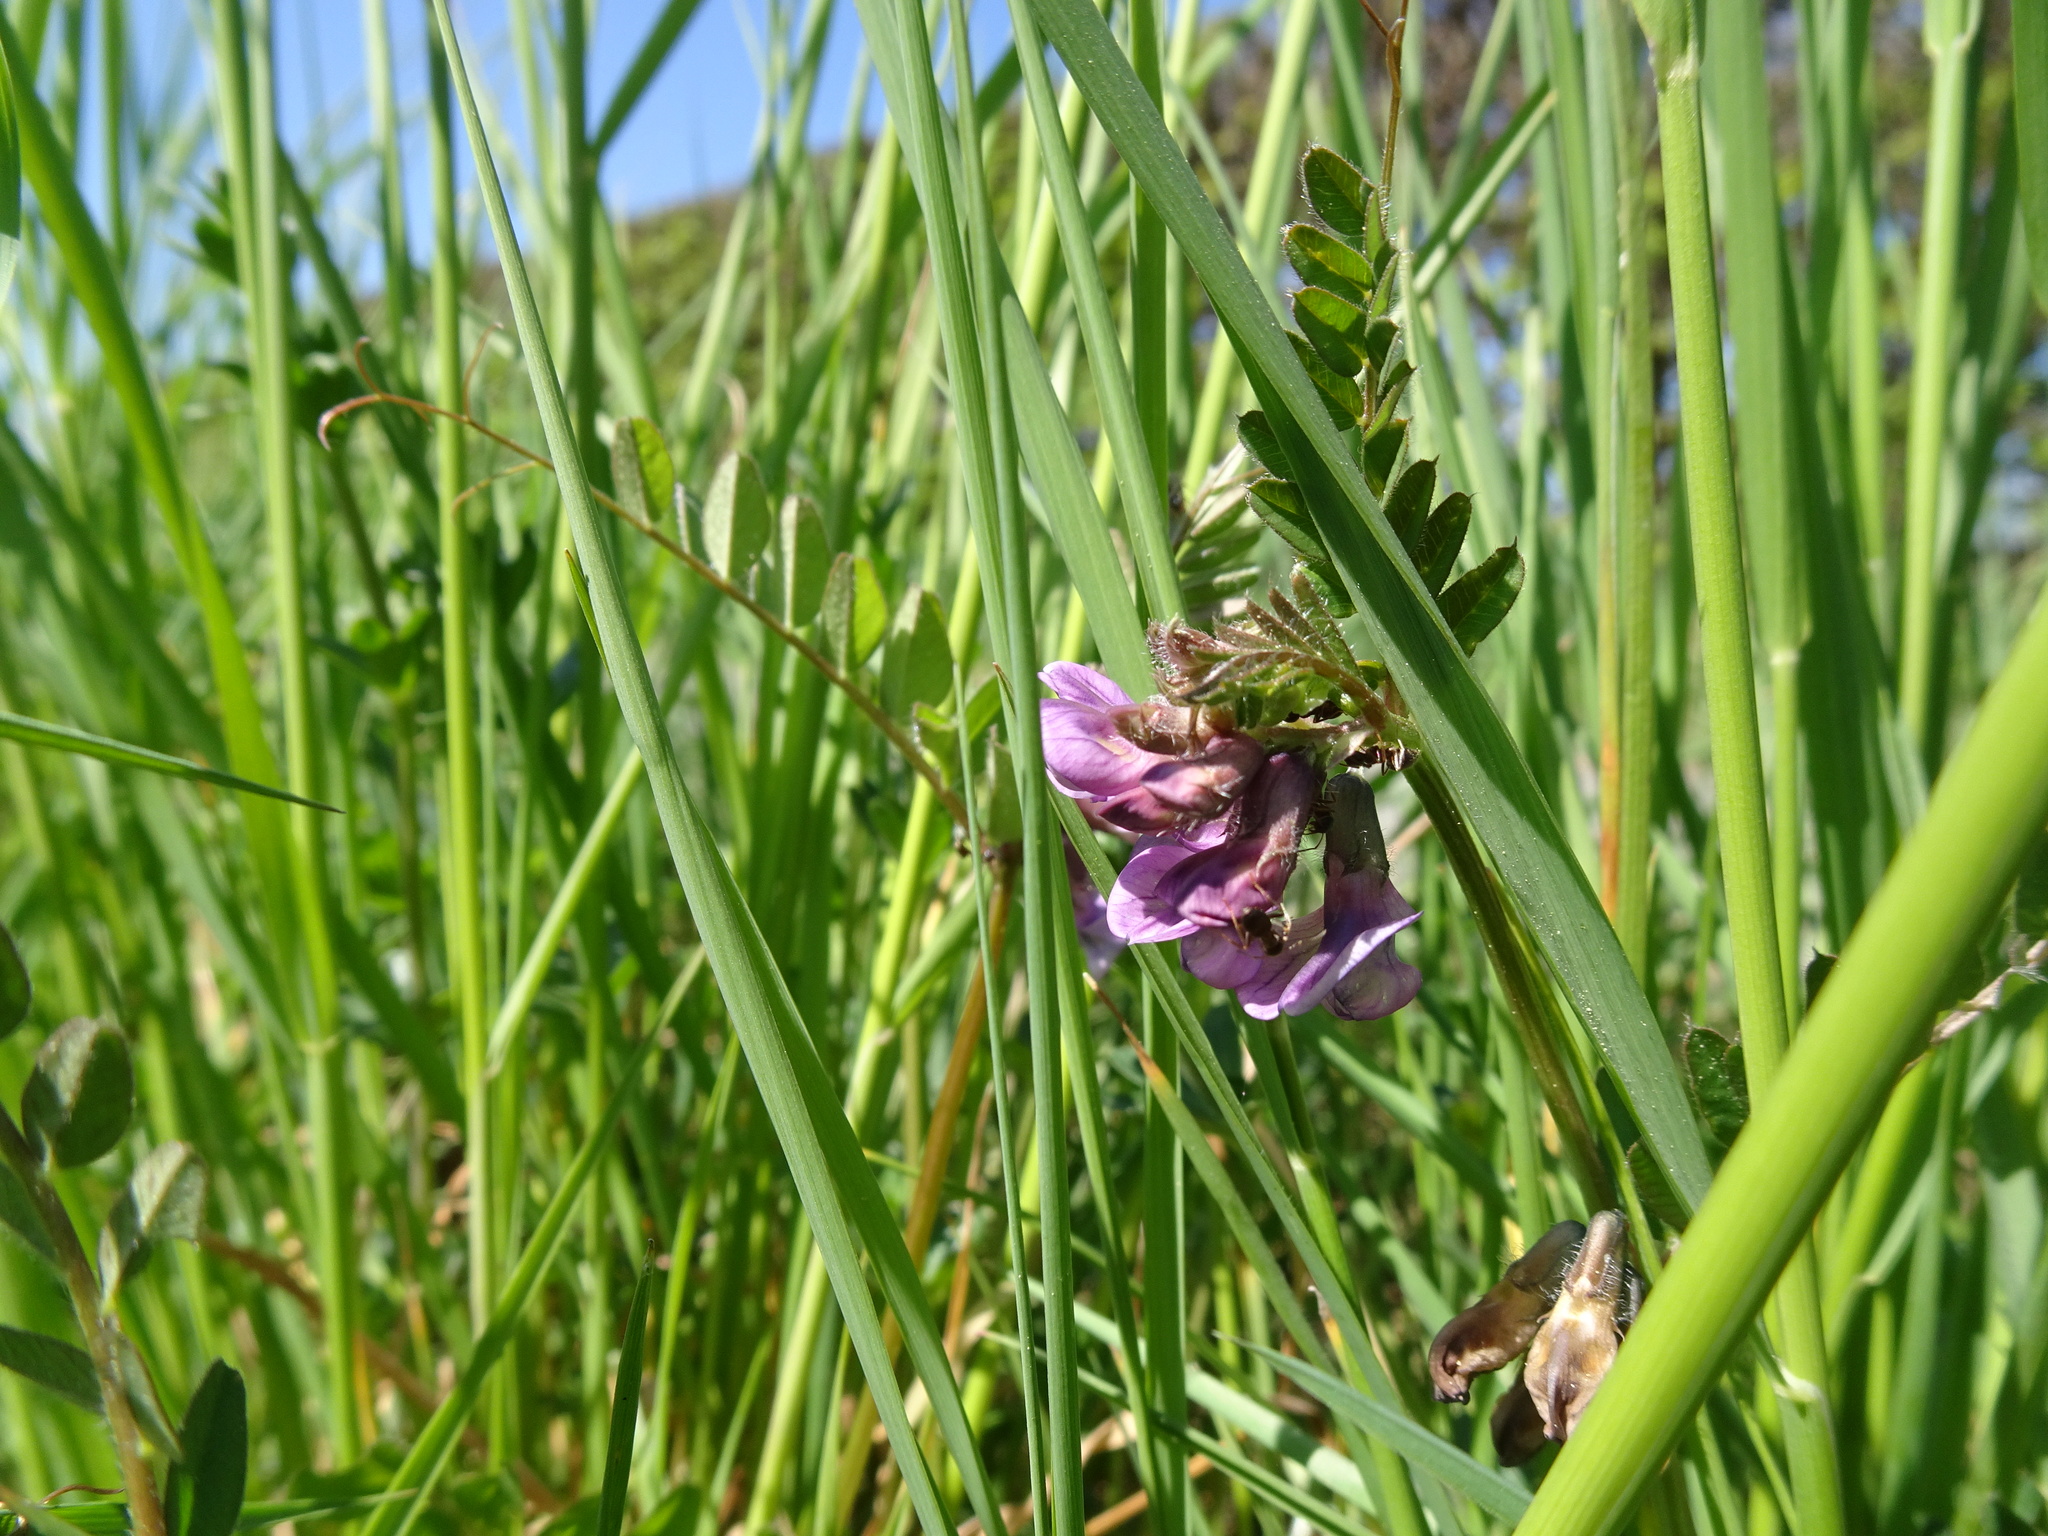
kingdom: Plantae
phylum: Tracheophyta
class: Magnoliopsida
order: Fabales
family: Fabaceae
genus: Vicia
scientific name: Vicia sepium
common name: Bush vetch
